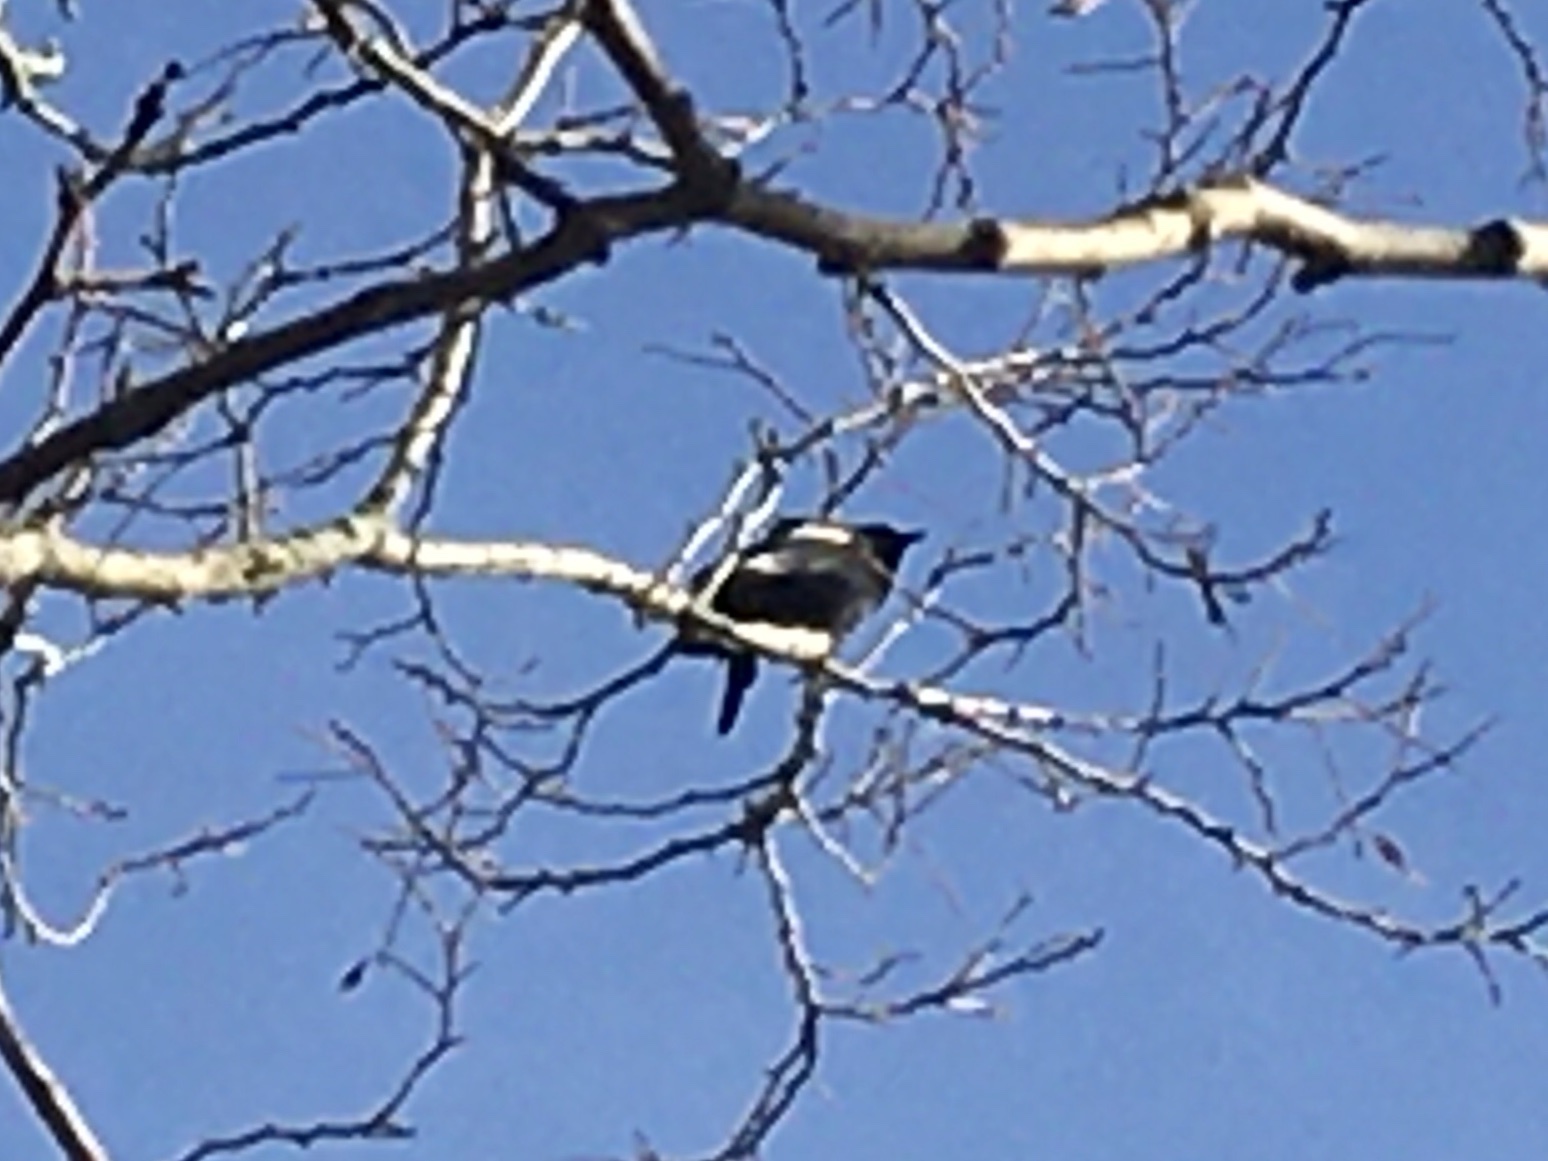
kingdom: Animalia
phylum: Chordata
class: Aves
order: Passeriformes
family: Icteridae
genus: Agelaius
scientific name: Agelaius phoeniceus
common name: Red-winged blackbird
